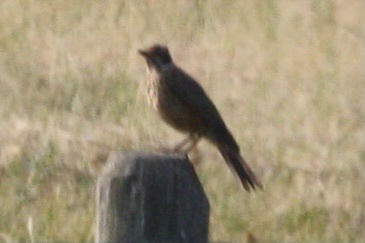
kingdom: Animalia
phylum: Chordata
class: Aves
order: Passeriformes
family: Turdidae
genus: Turdus
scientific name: Turdus migratorius
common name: American robin
